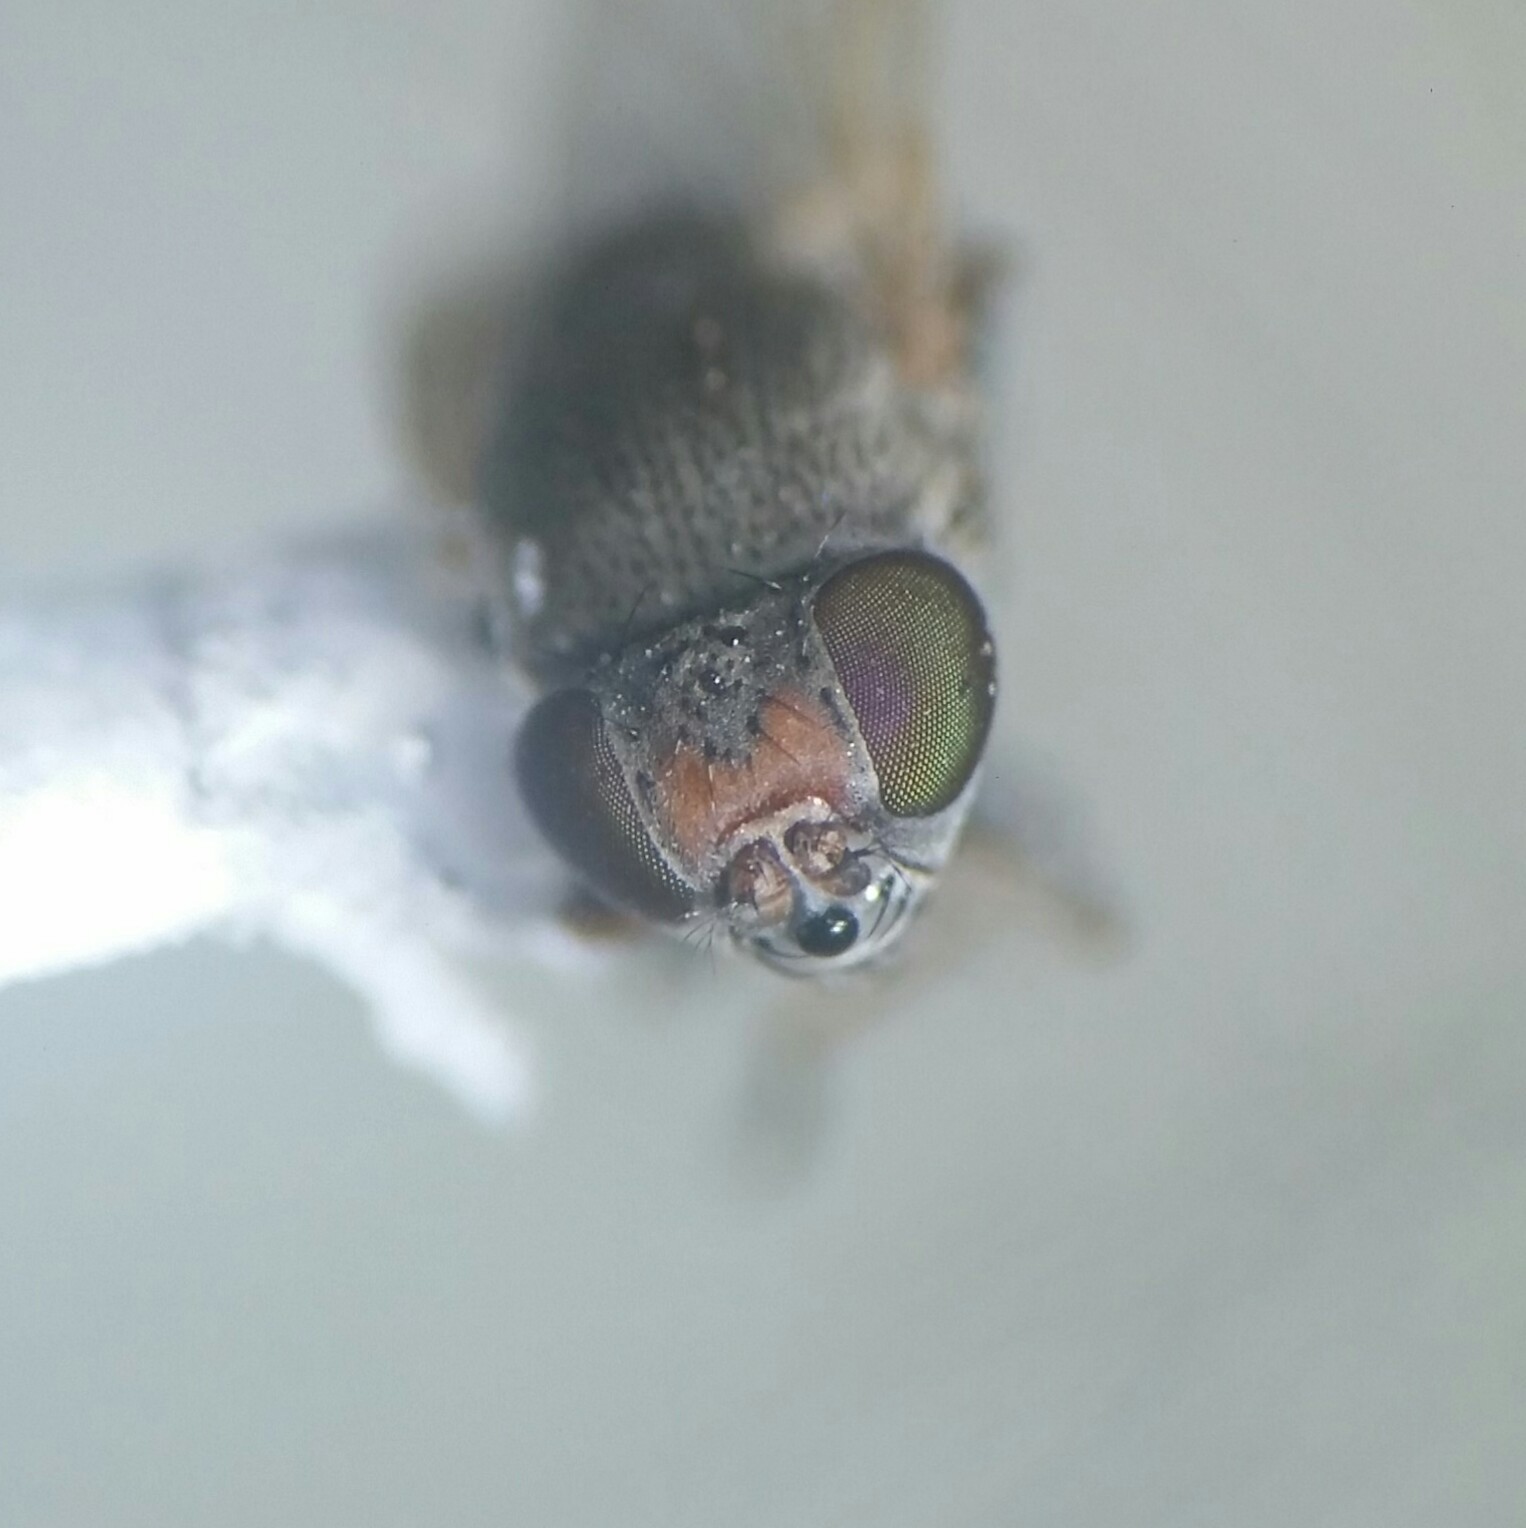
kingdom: Animalia
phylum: Arthropoda
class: Insecta
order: Diptera
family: Ephydridae
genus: Hecamede
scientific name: Hecamede albicans
